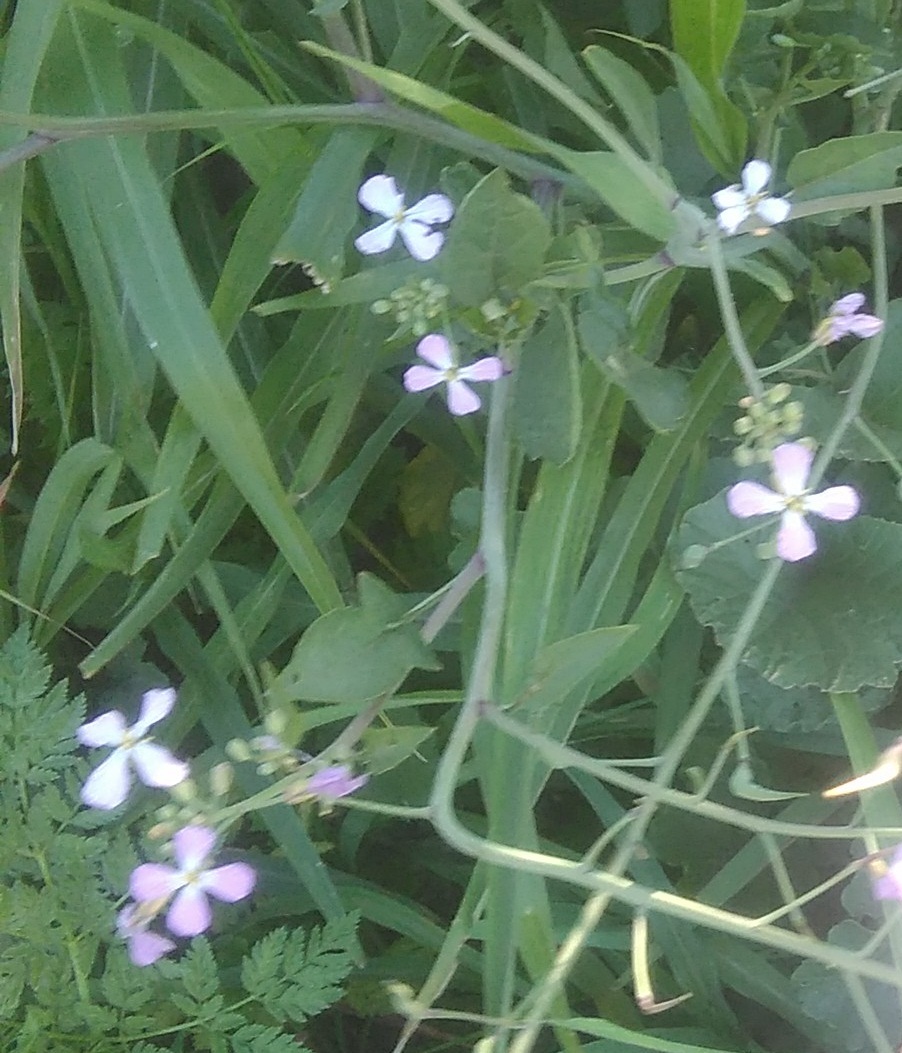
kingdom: Plantae
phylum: Tracheophyta
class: Magnoliopsida
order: Brassicales
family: Brassicaceae
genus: Raphanus
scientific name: Raphanus sativus
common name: Cultivated radish
